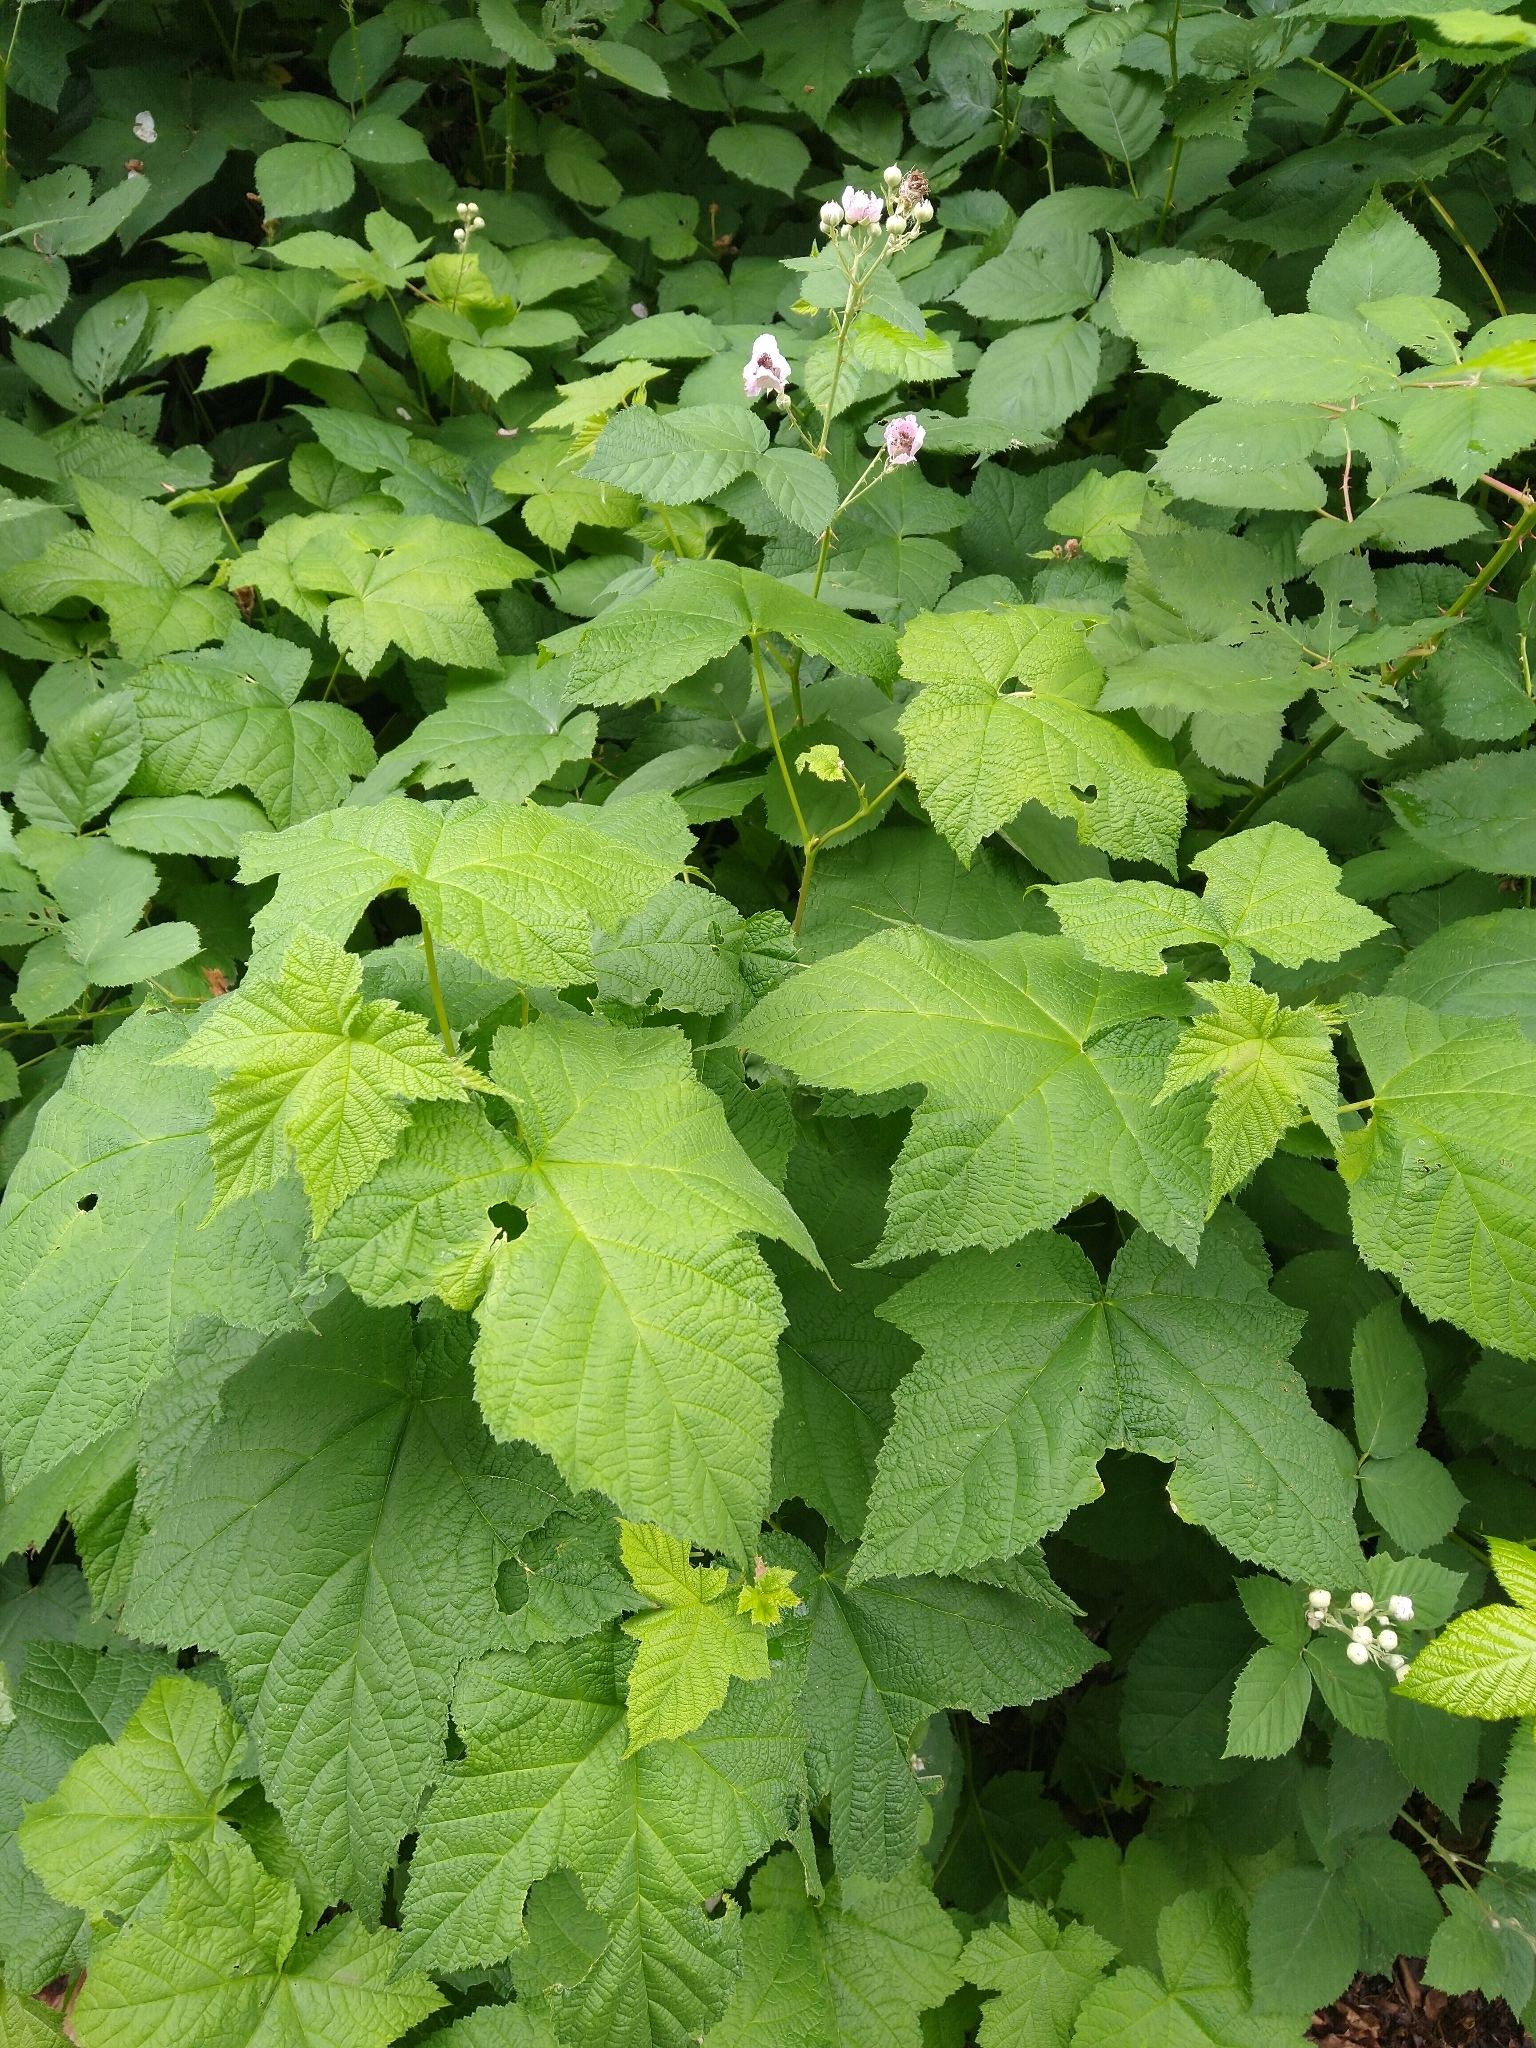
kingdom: Plantae
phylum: Tracheophyta
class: Magnoliopsida
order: Rosales
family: Rosaceae
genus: Rubus
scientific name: Rubus parviflorus
